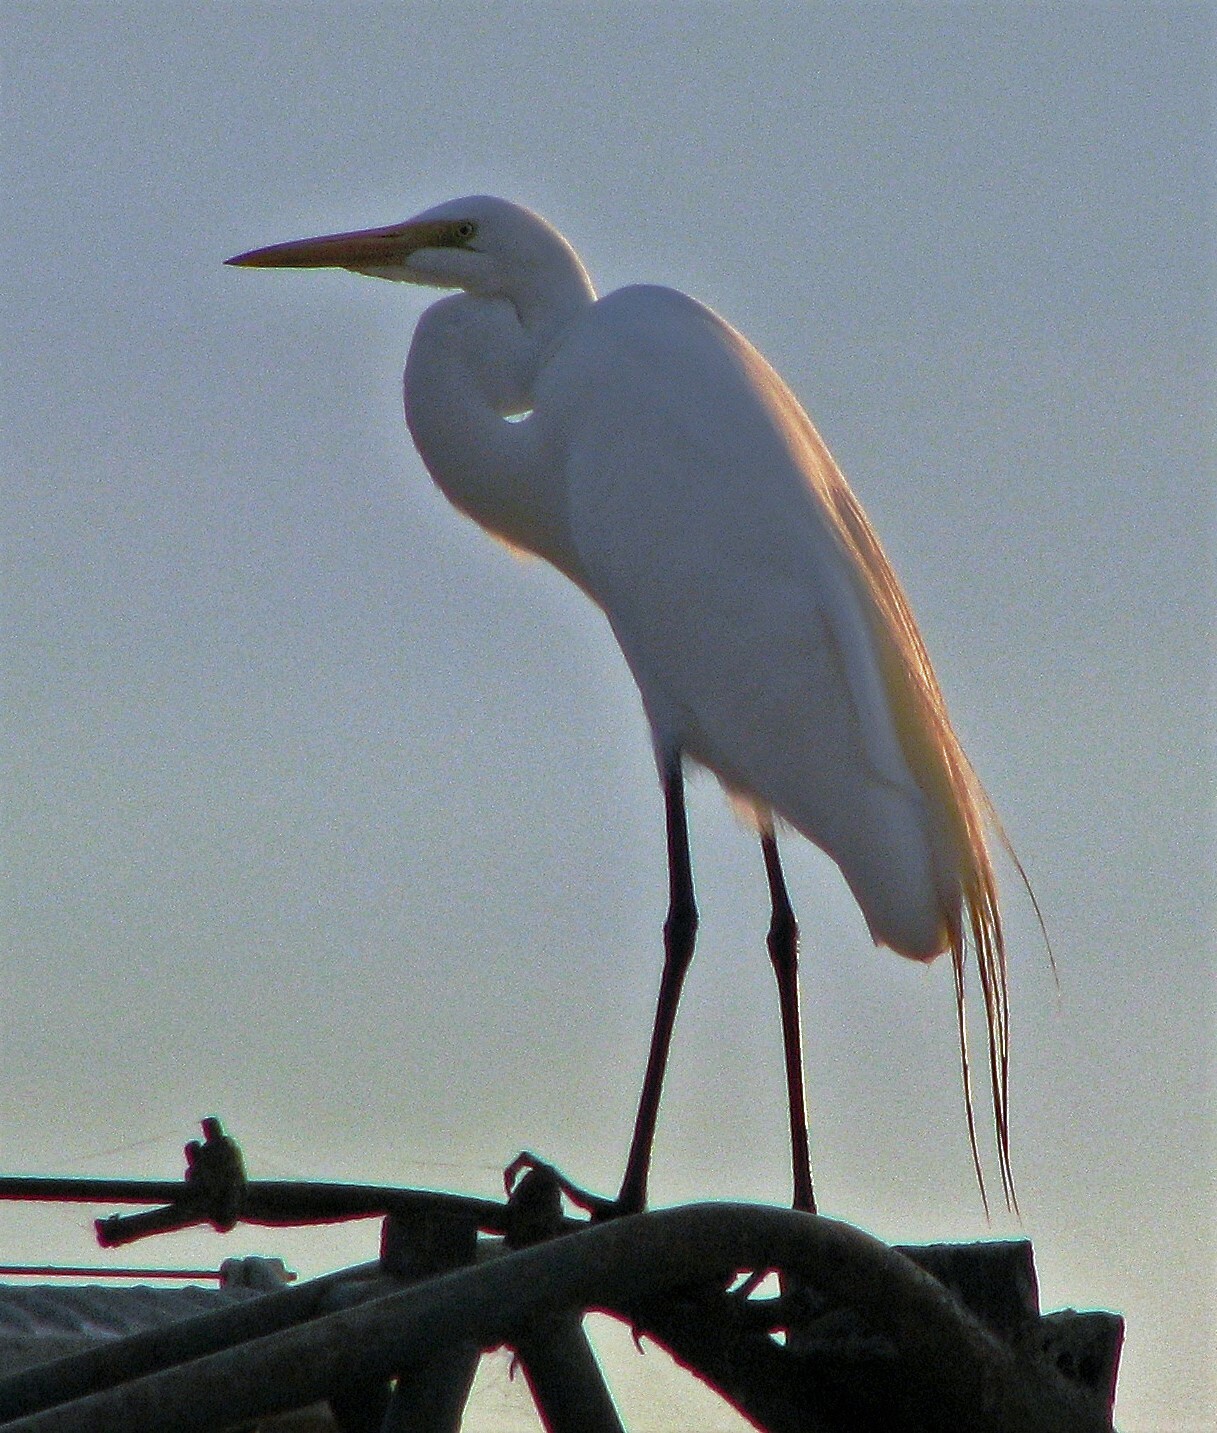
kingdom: Animalia
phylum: Chordata
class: Aves
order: Pelecaniformes
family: Ardeidae
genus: Ardea
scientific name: Ardea alba
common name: Great egret
